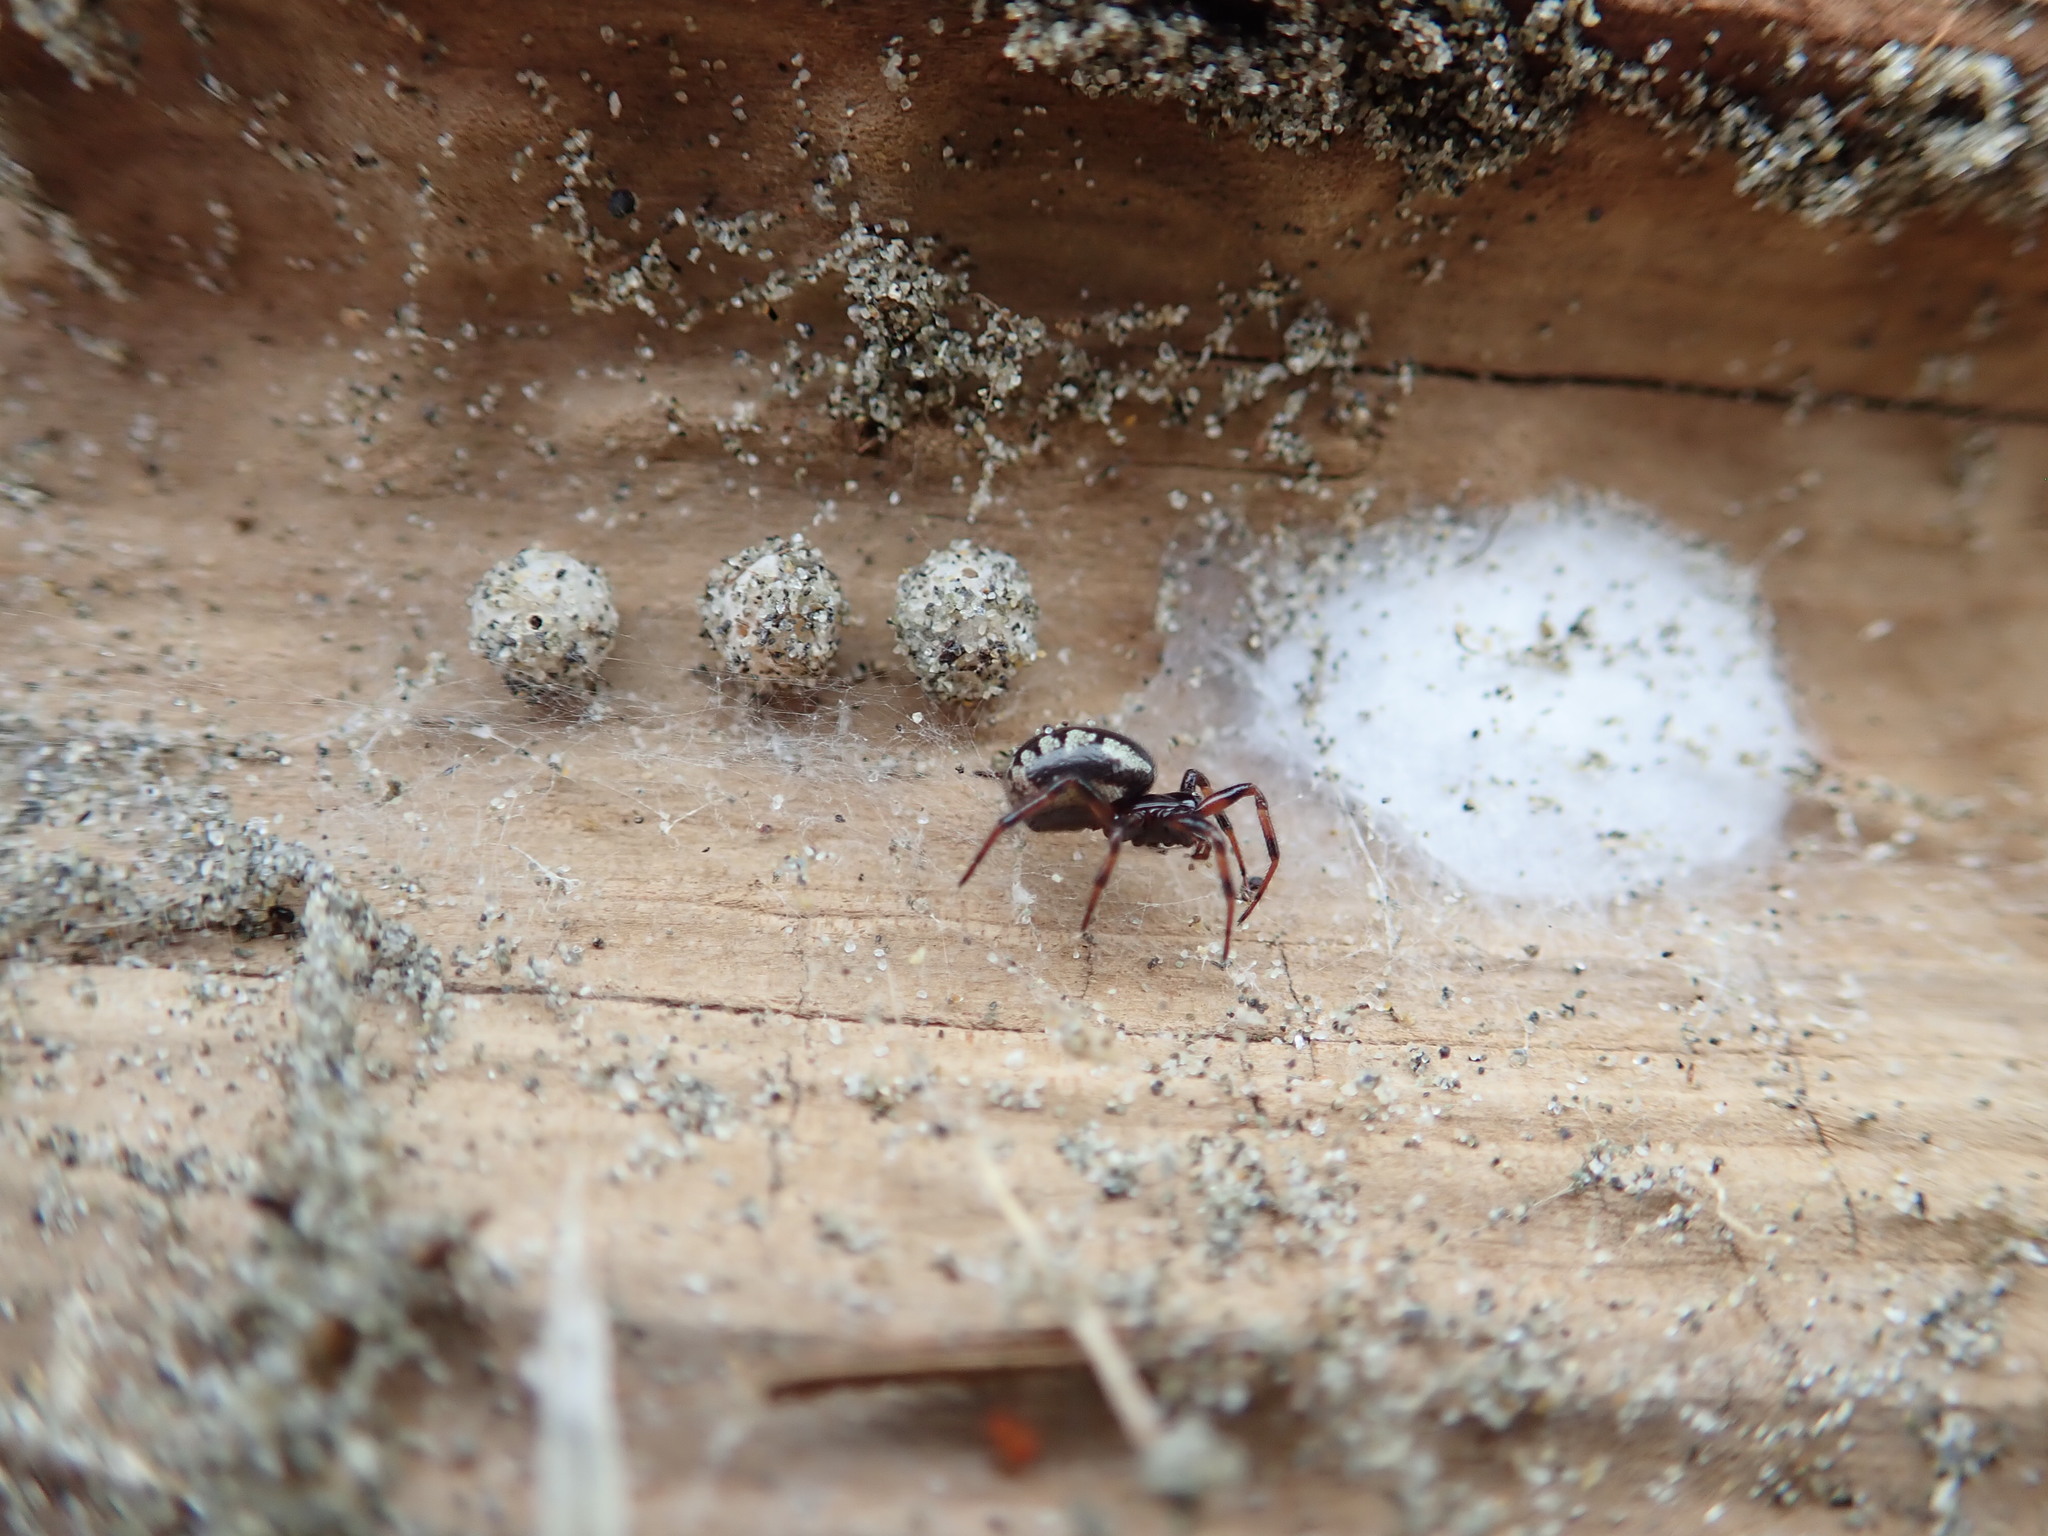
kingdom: Animalia
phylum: Arthropoda
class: Arachnida
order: Araneae
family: Theridiidae
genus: Steatoda
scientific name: Steatoda lepida
